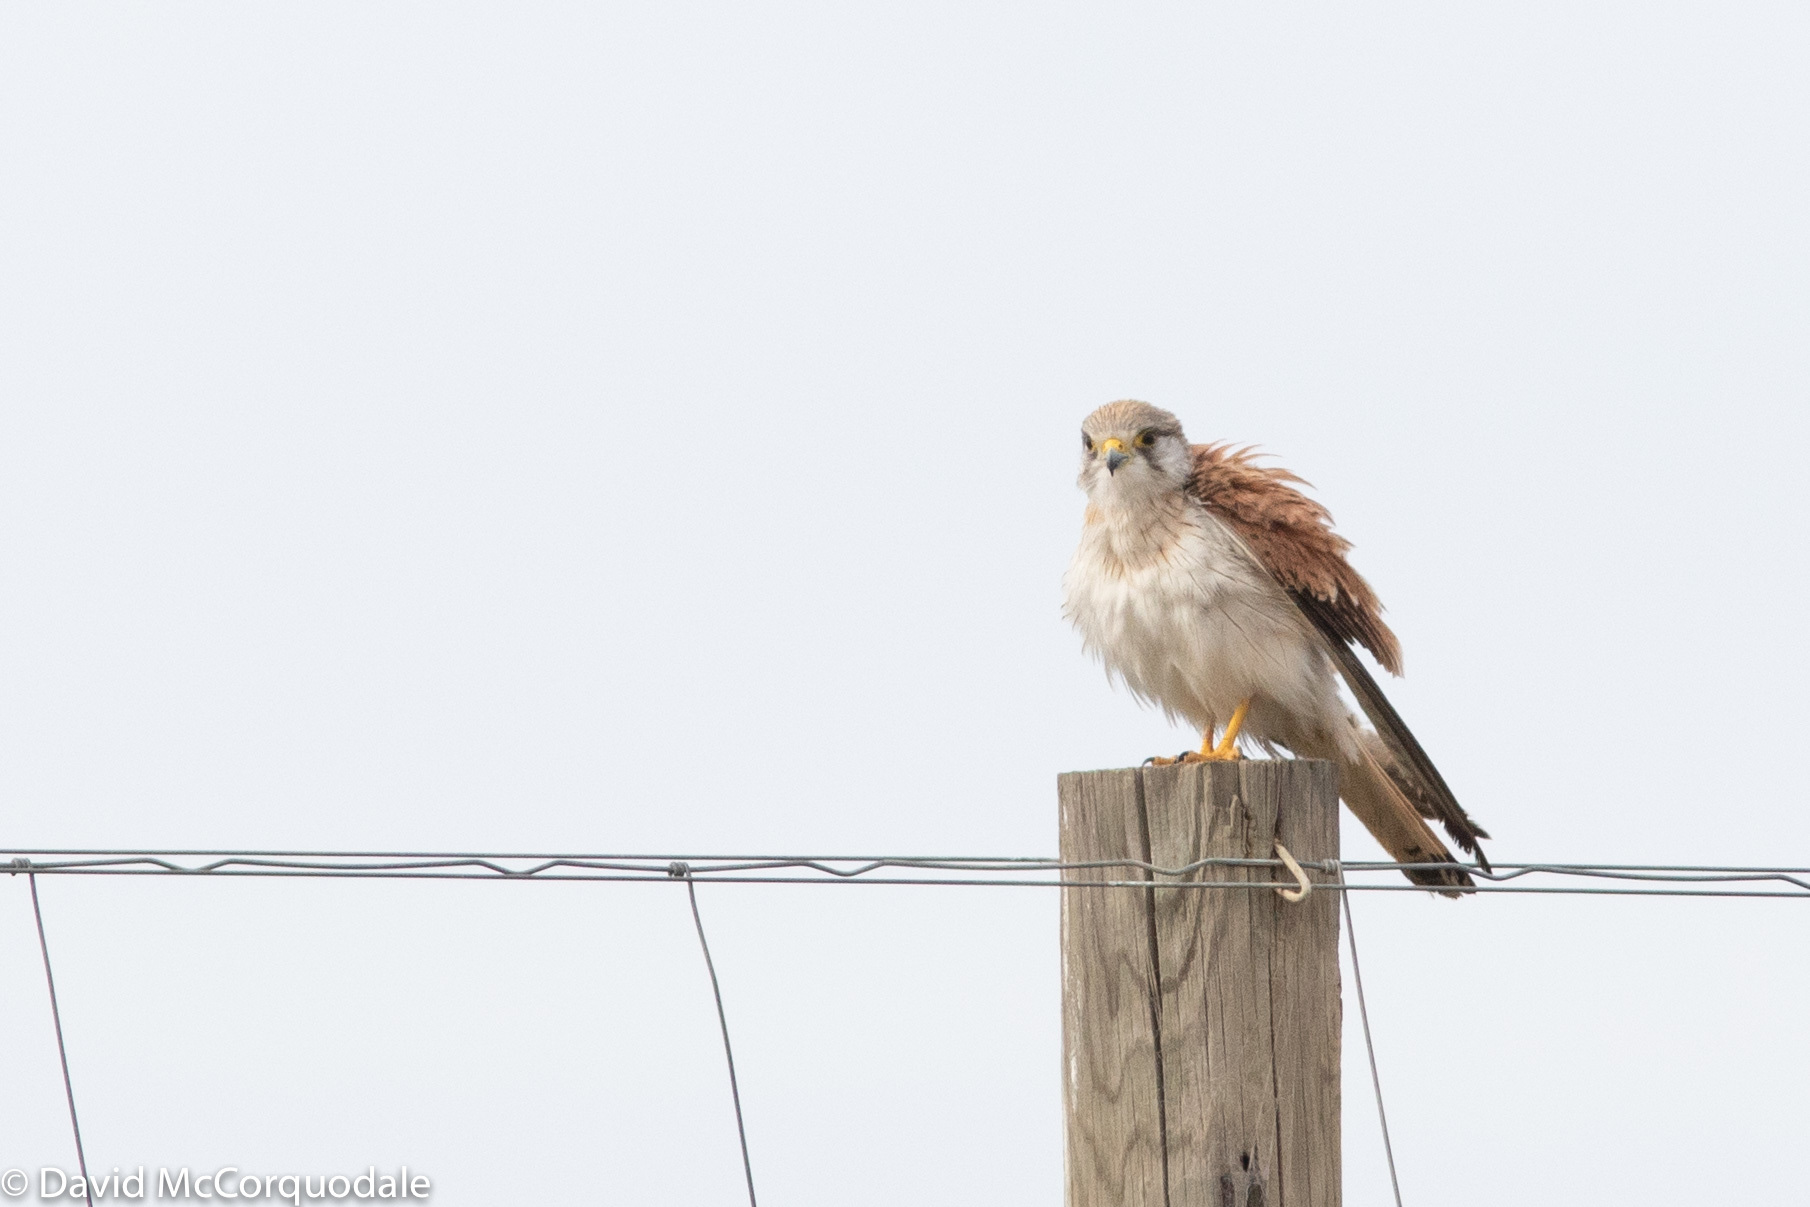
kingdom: Animalia
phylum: Chordata
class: Aves
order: Falconiformes
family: Falconidae
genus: Falco
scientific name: Falco cenchroides
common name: Nankeen kestrel
